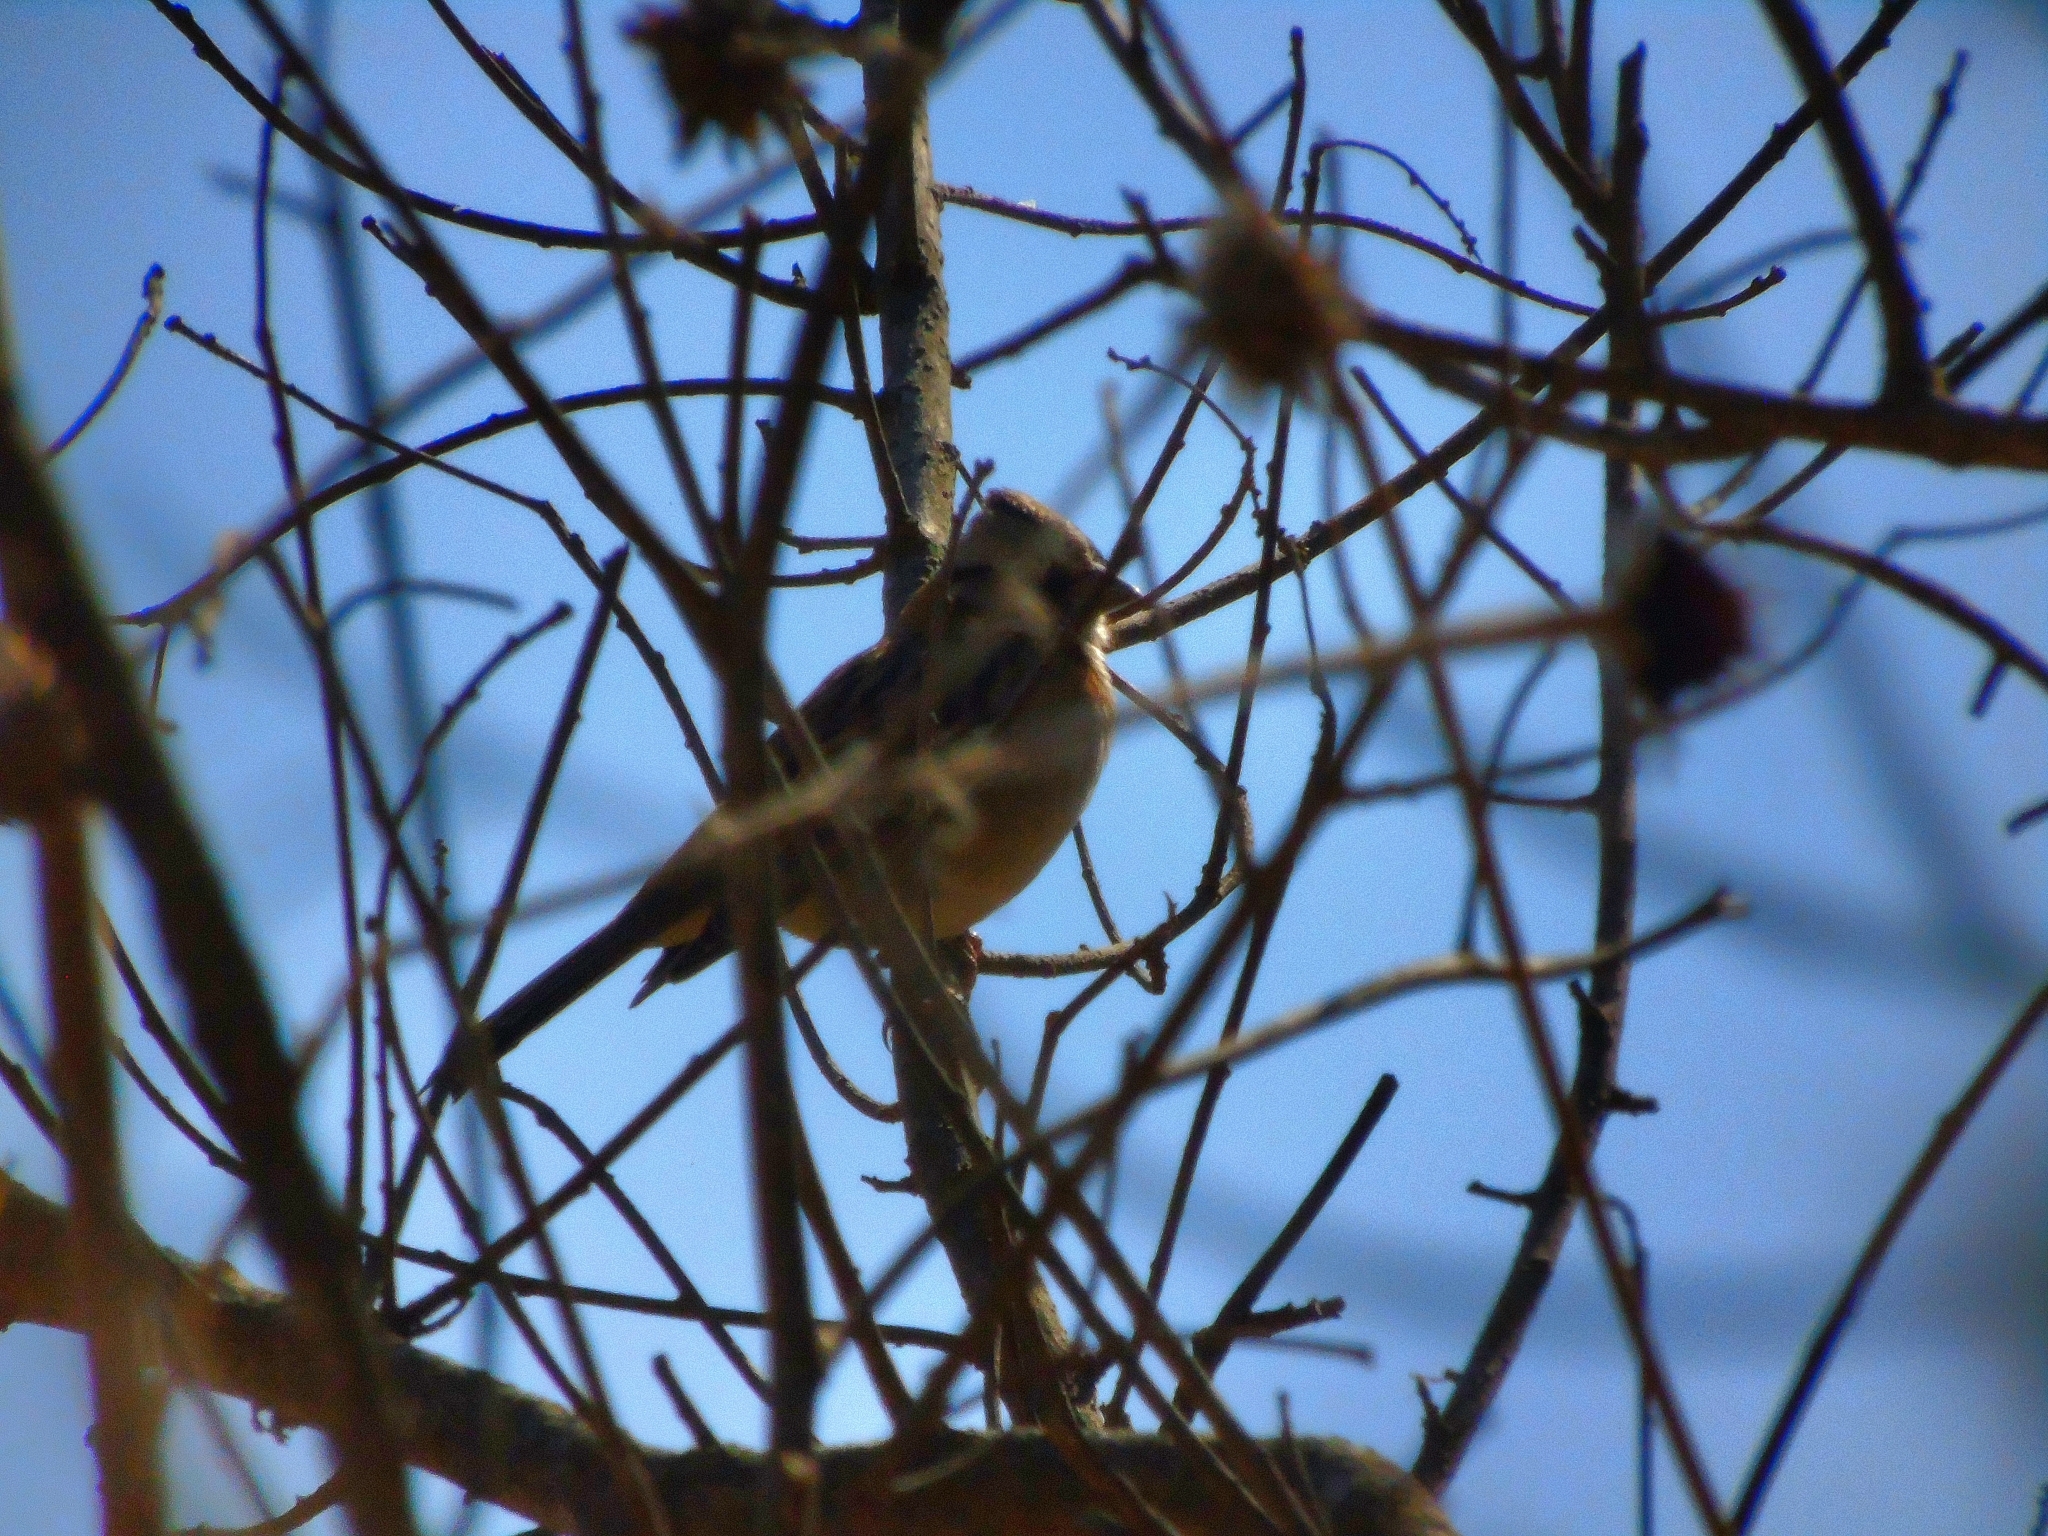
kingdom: Animalia
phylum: Chordata
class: Aves
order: Passeriformes
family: Passerellidae
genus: Zonotrichia
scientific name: Zonotrichia capensis
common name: Rufous-collared sparrow
